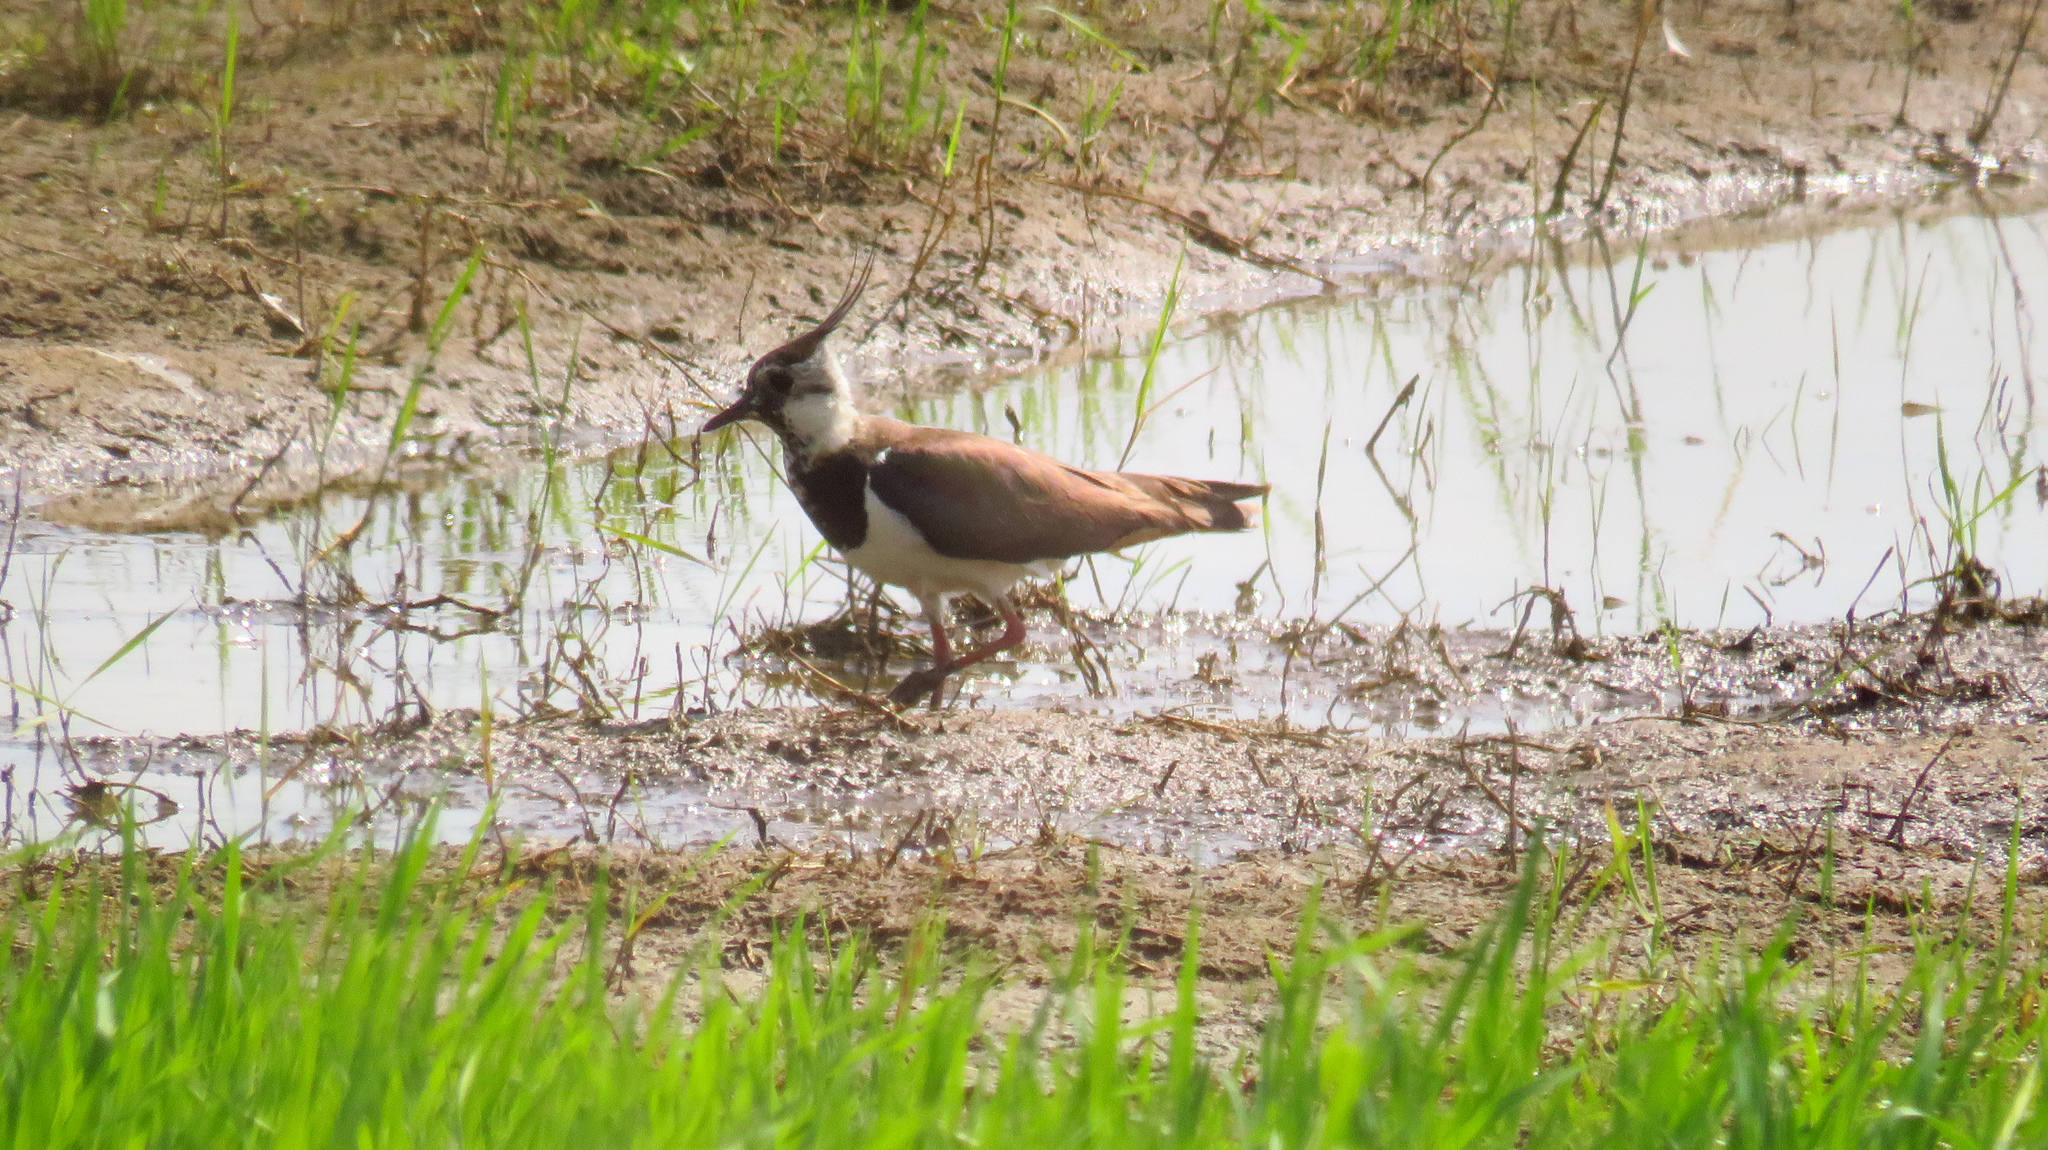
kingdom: Animalia
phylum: Chordata
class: Aves
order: Charadriiformes
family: Charadriidae
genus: Vanellus
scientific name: Vanellus vanellus
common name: Northern lapwing
